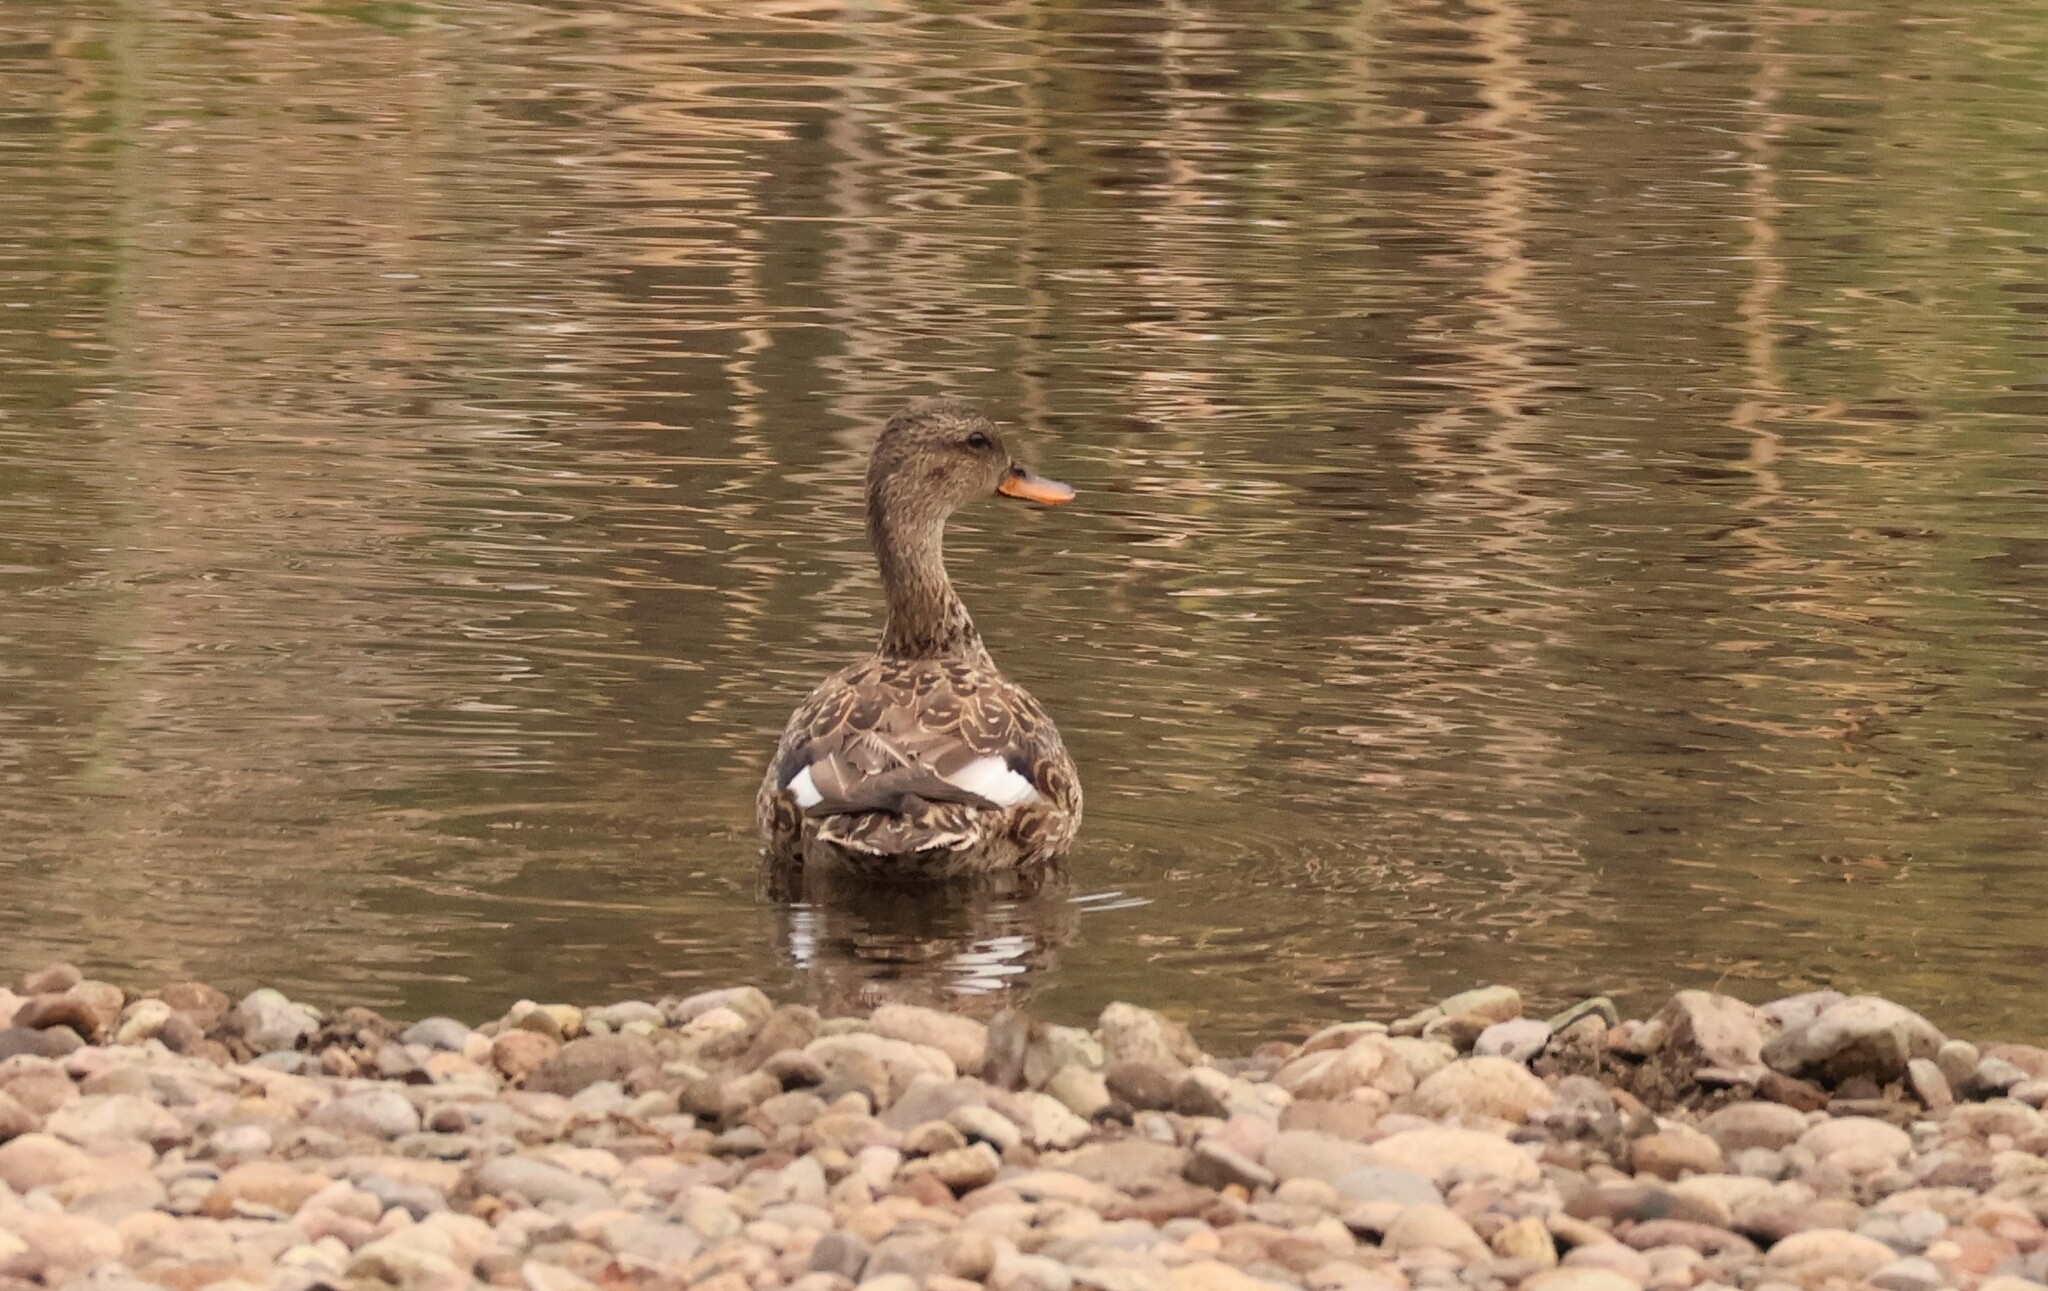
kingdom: Animalia
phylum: Chordata
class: Aves
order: Anseriformes
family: Anatidae
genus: Mareca
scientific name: Mareca strepera
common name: Gadwall
